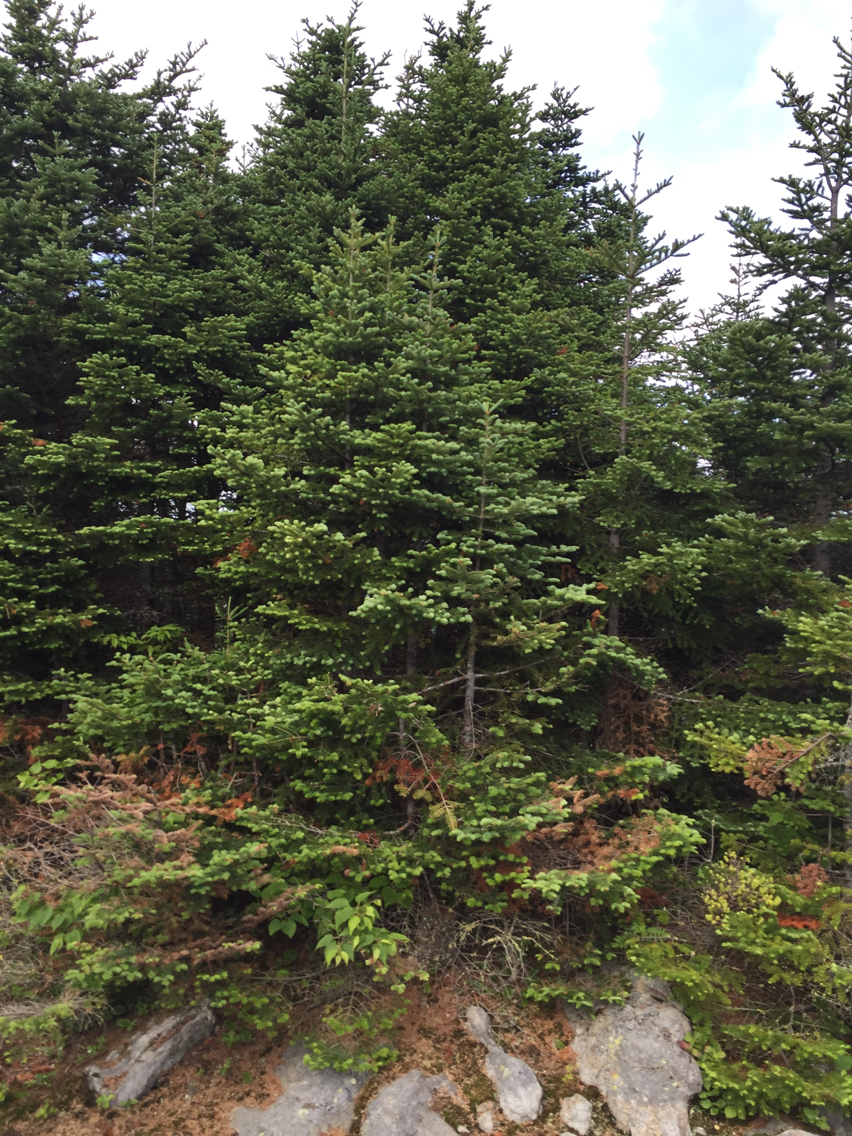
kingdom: Plantae
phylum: Tracheophyta
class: Pinopsida
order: Pinales
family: Pinaceae
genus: Abies
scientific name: Abies balsamea
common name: Balsam fir
